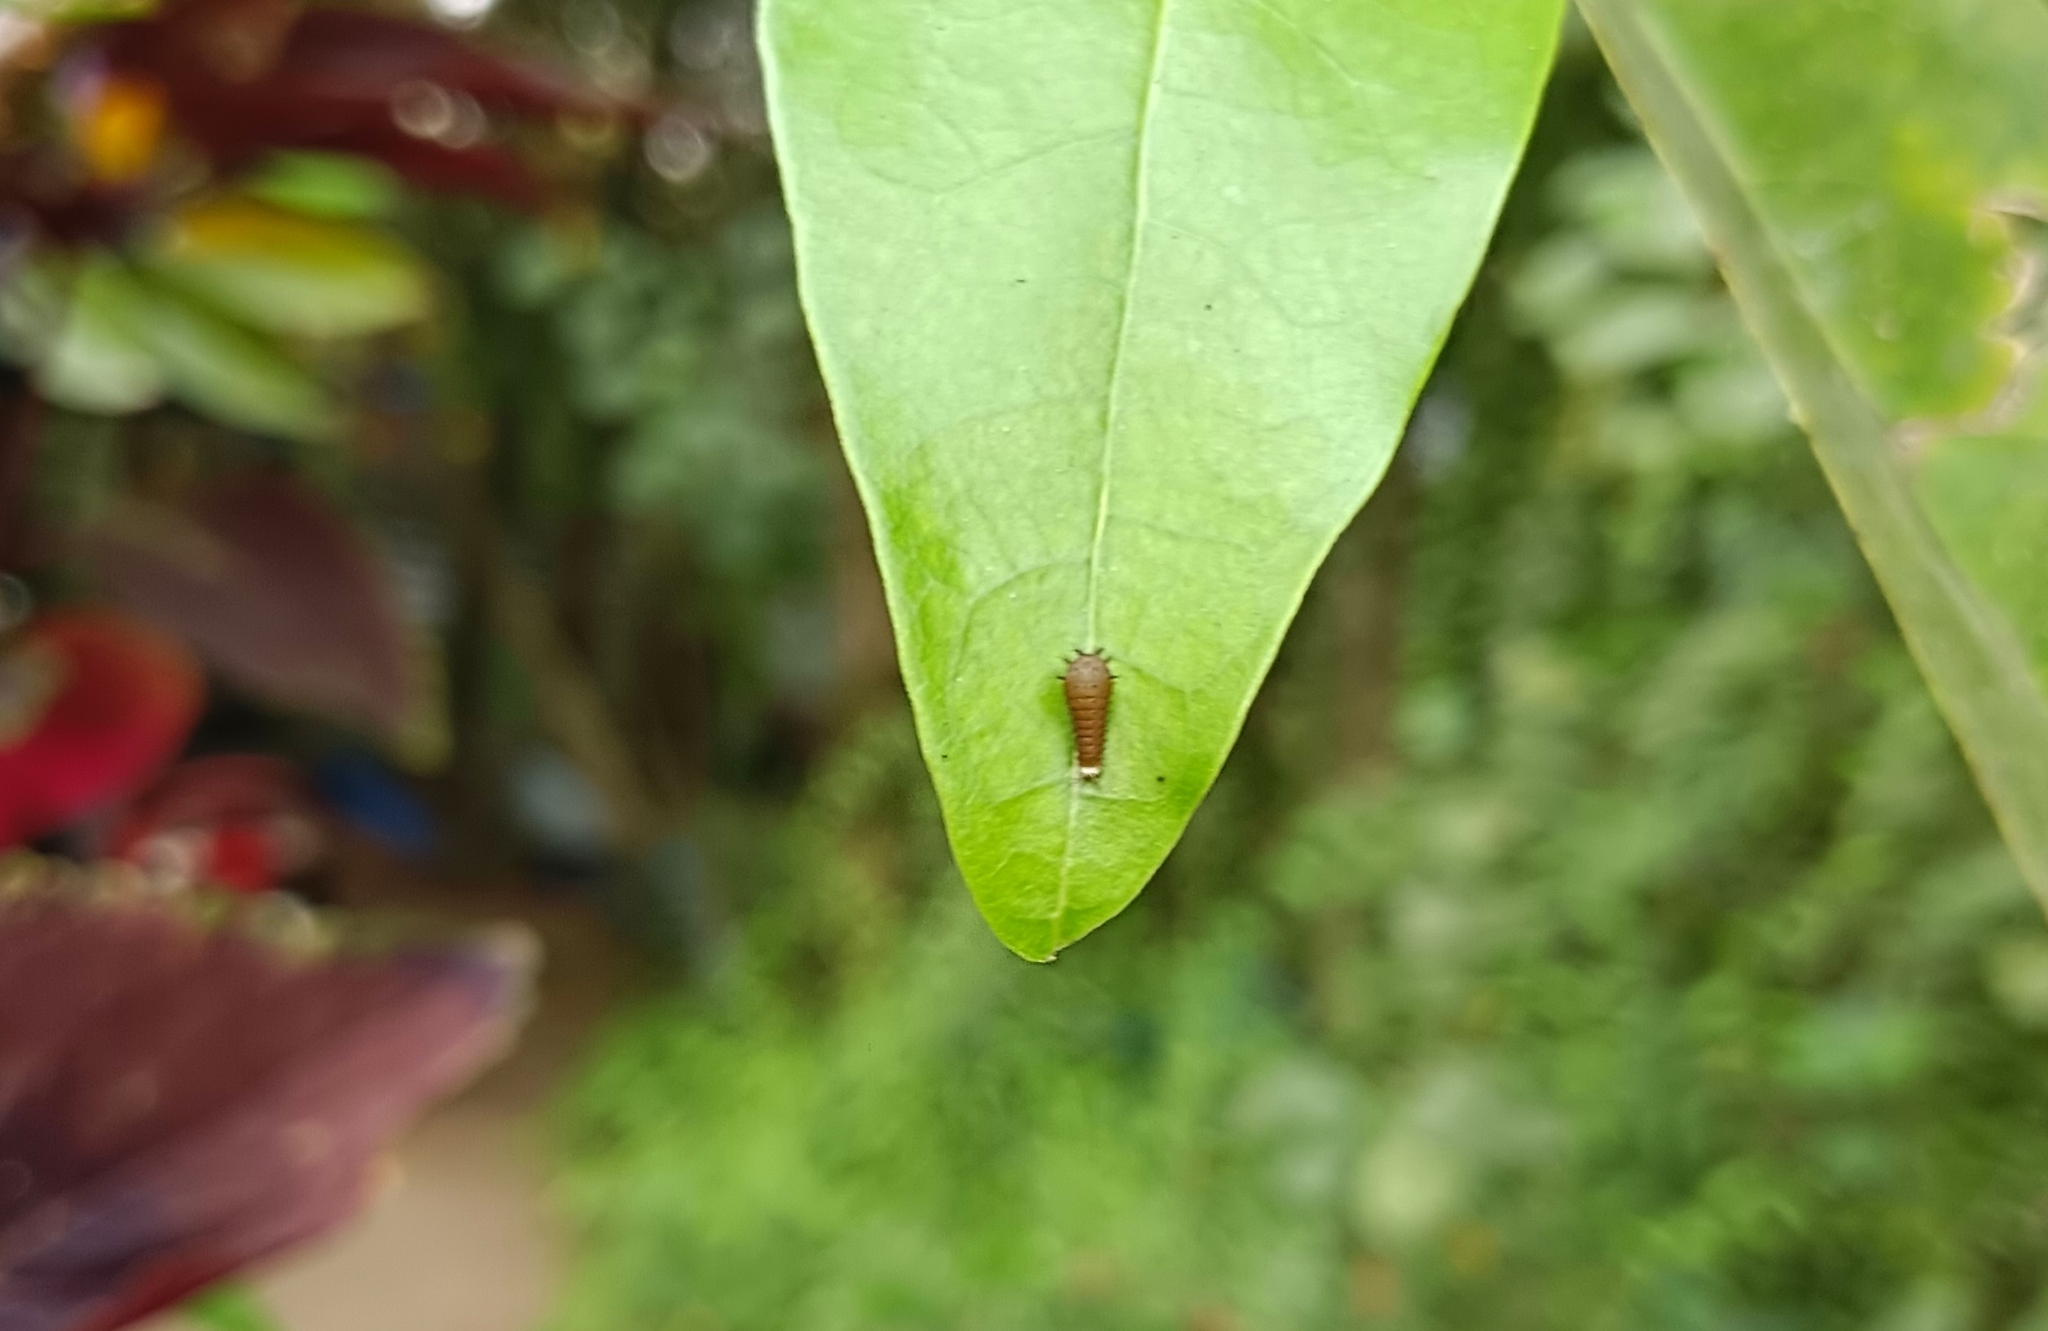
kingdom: Animalia
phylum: Arthropoda
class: Insecta
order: Lepidoptera
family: Papilionidae
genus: Graphium
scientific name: Graphium doson
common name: Common jay
